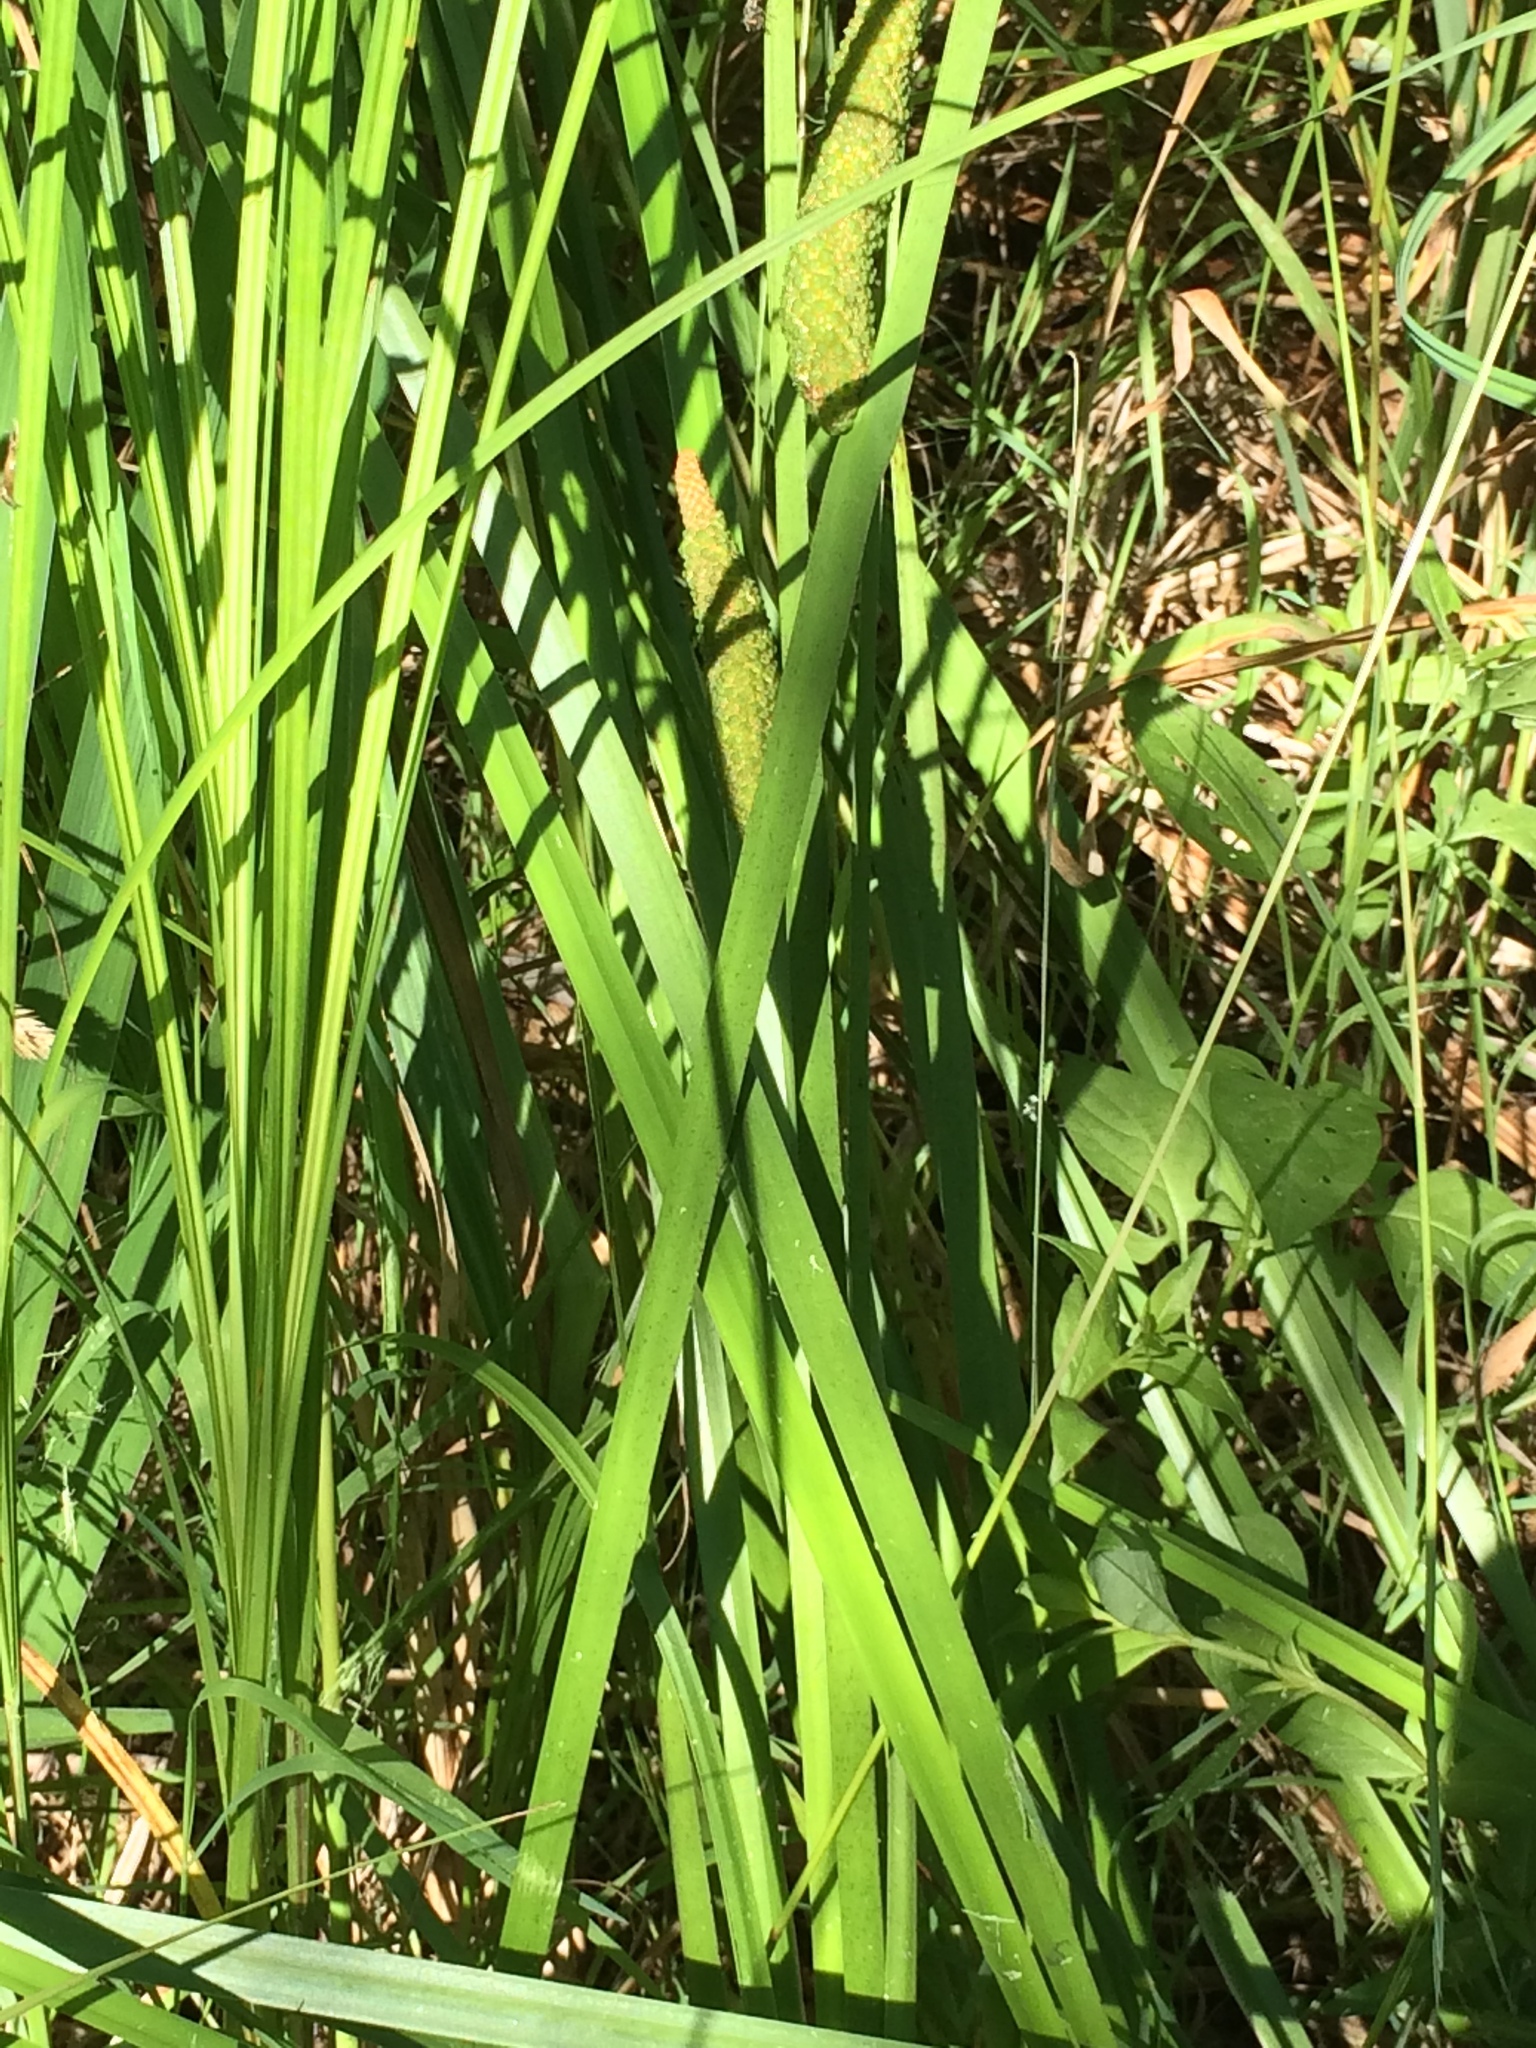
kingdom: Plantae
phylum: Tracheophyta
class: Liliopsida
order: Acorales
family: Acoraceae
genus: Acorus
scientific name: Acorus calamus
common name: Sweet-flag
